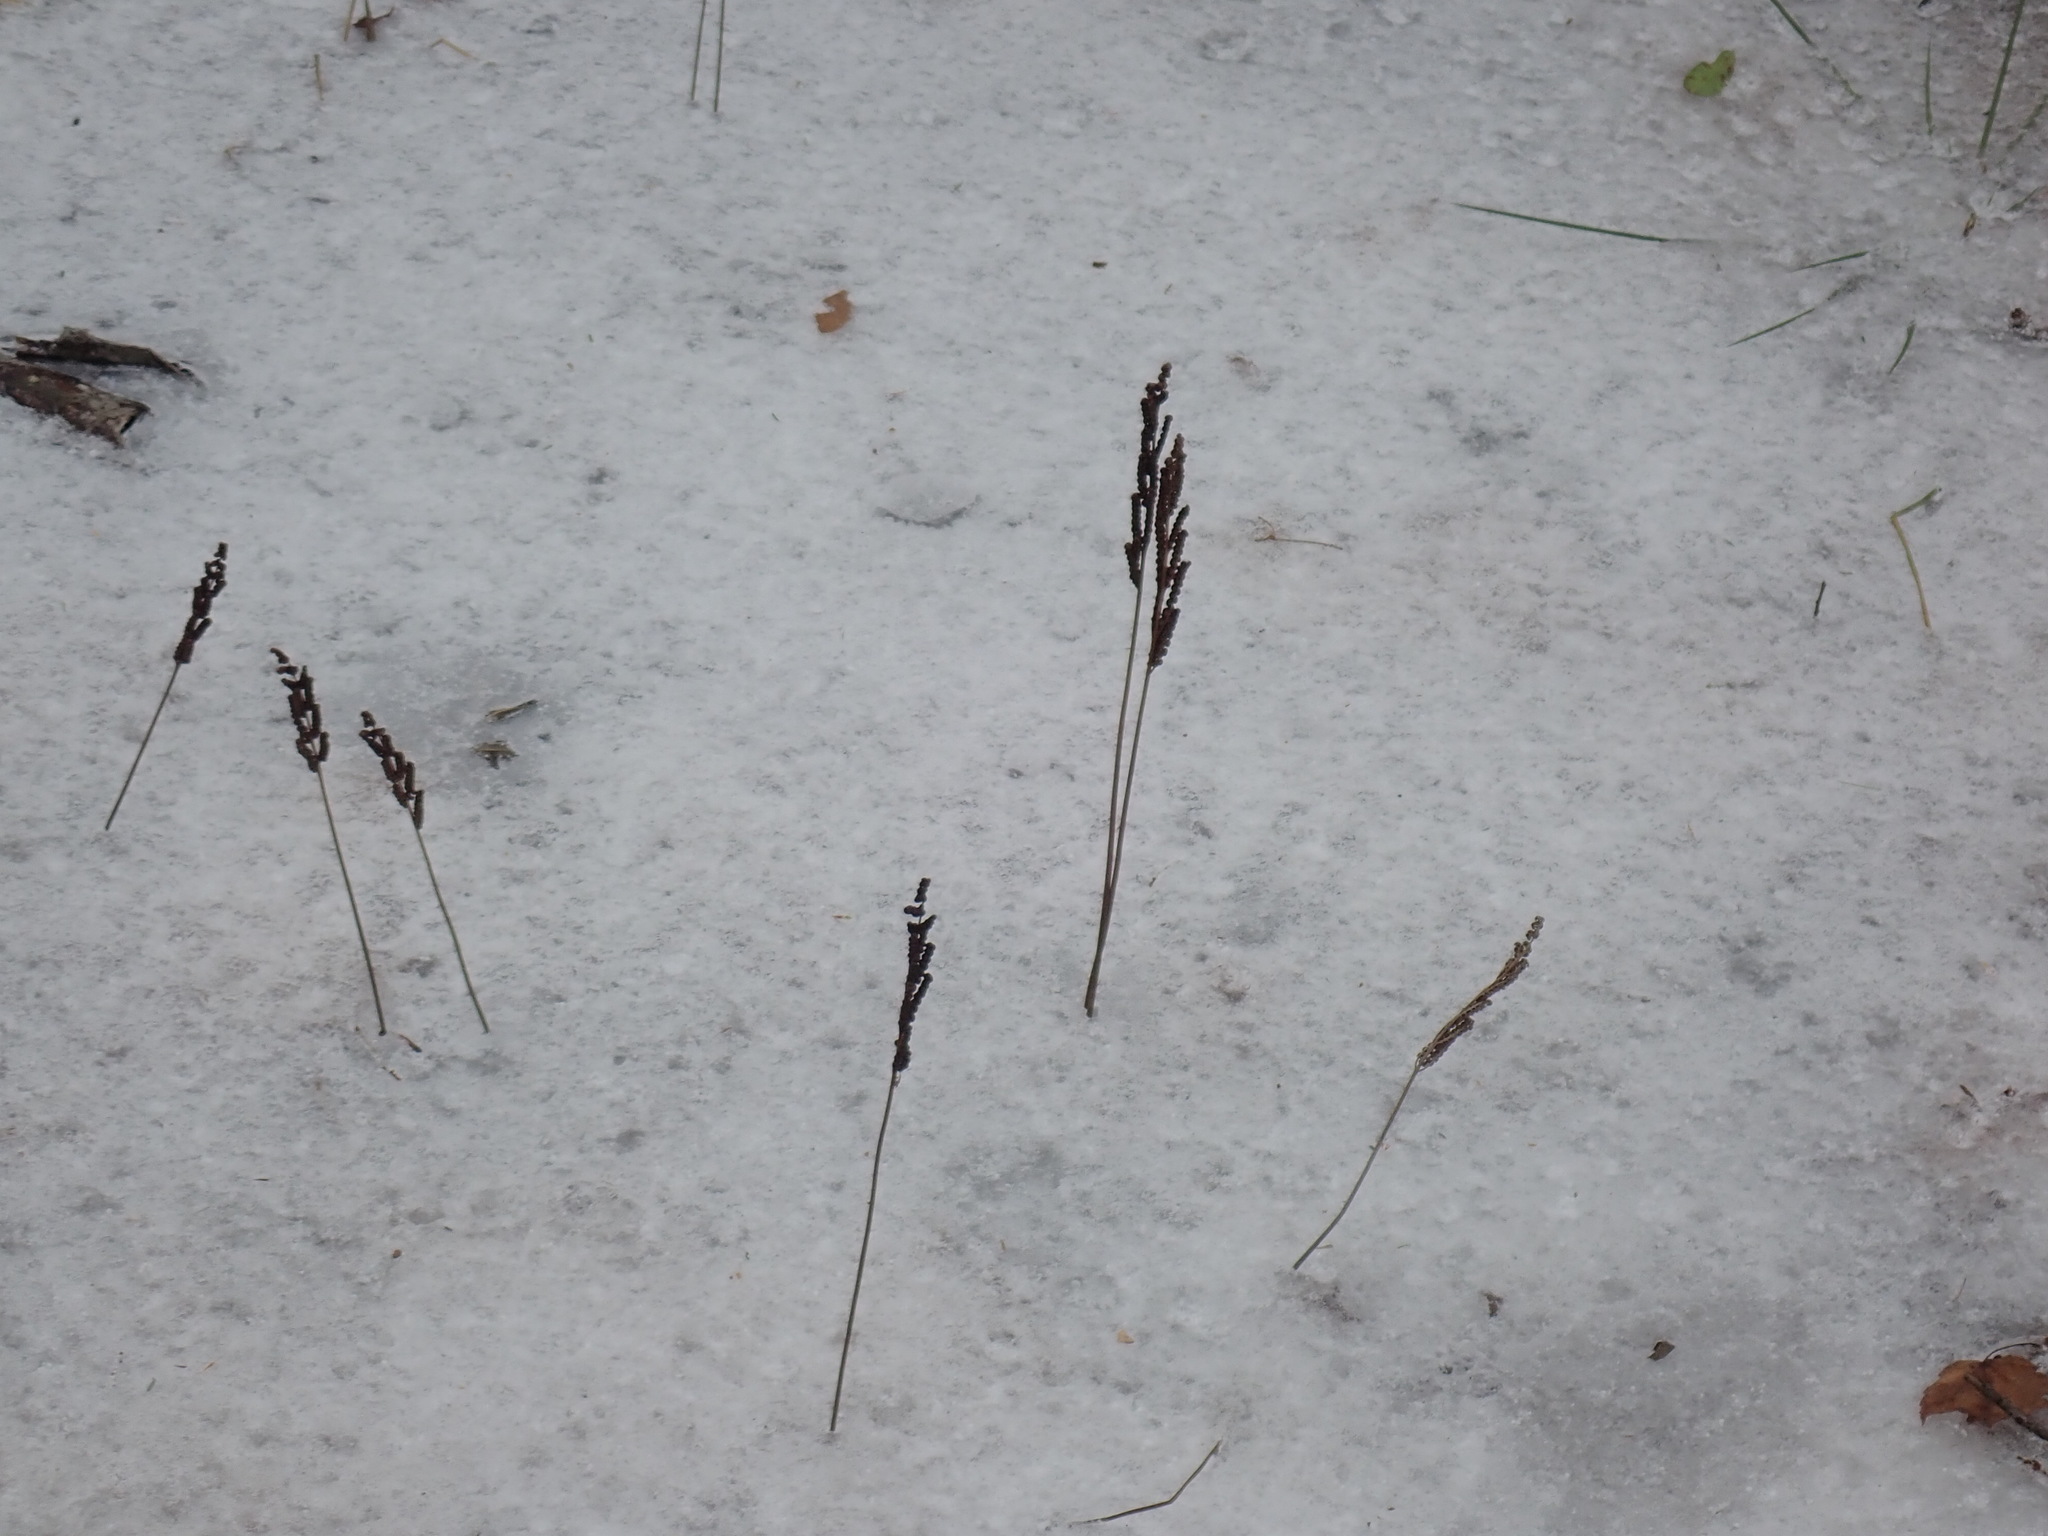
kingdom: Plantae
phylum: Tracheophyta
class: Polypodiopsida
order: Polypodiales
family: Onocleaceae
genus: Onoclea
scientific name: Onoclea sensibilis
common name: Sensitive fern
